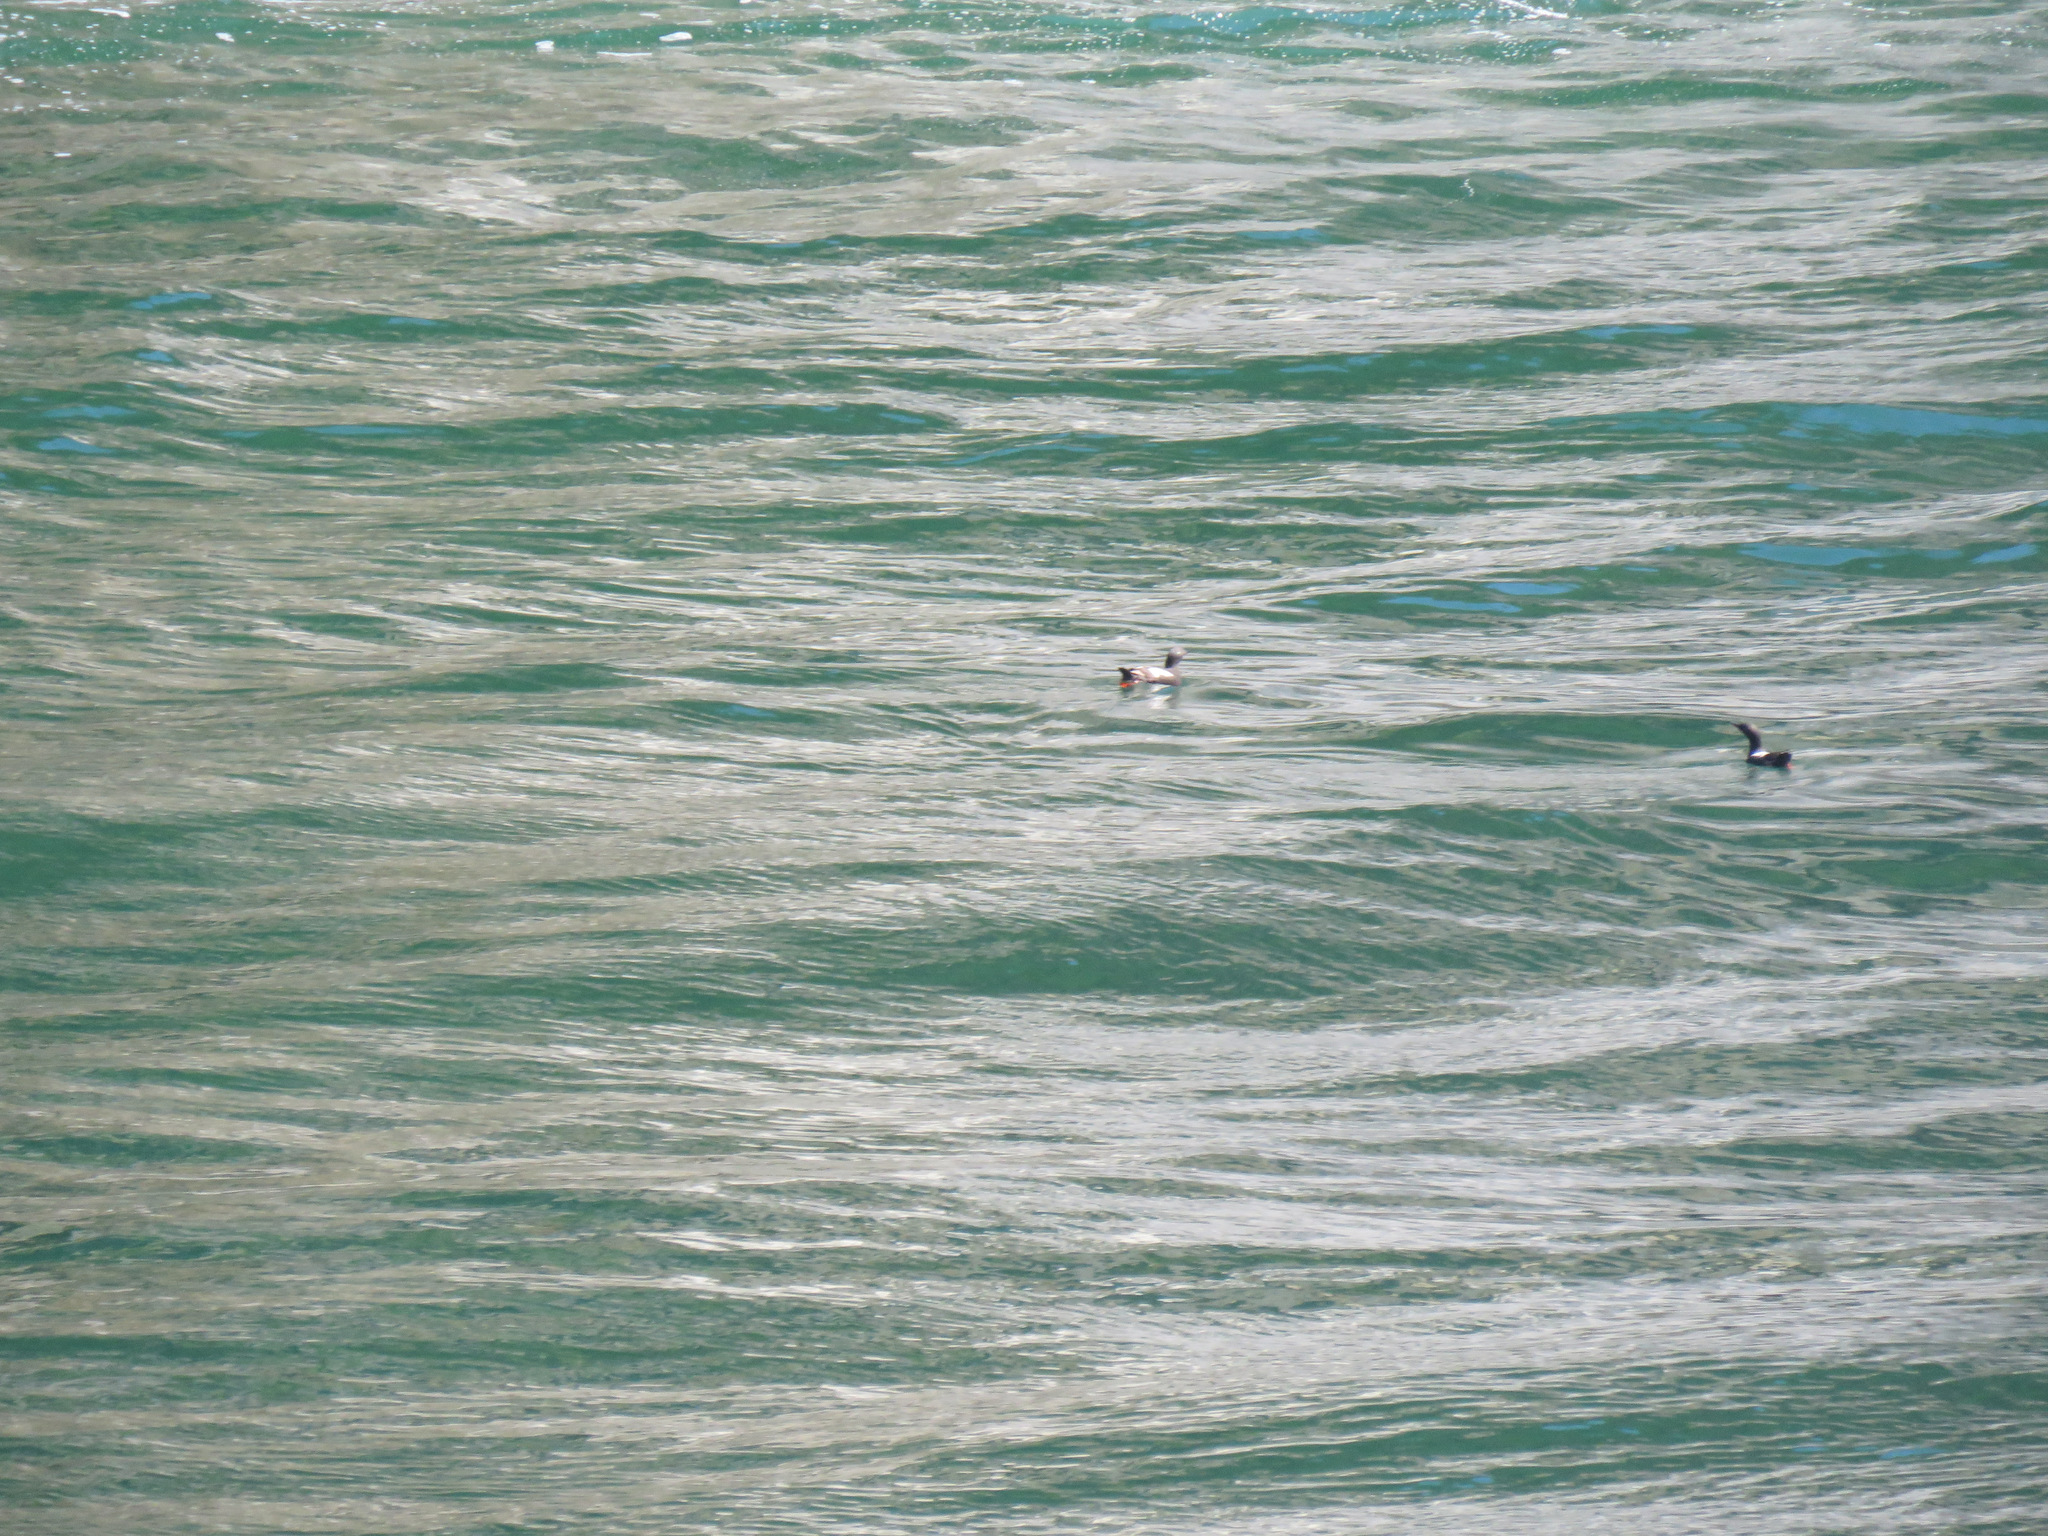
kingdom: Animalia
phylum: Chordata
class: Aves
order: Charadriiformes
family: Alcidae
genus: Cepphus
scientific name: Cepphus columba
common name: Pigeon guillemot
